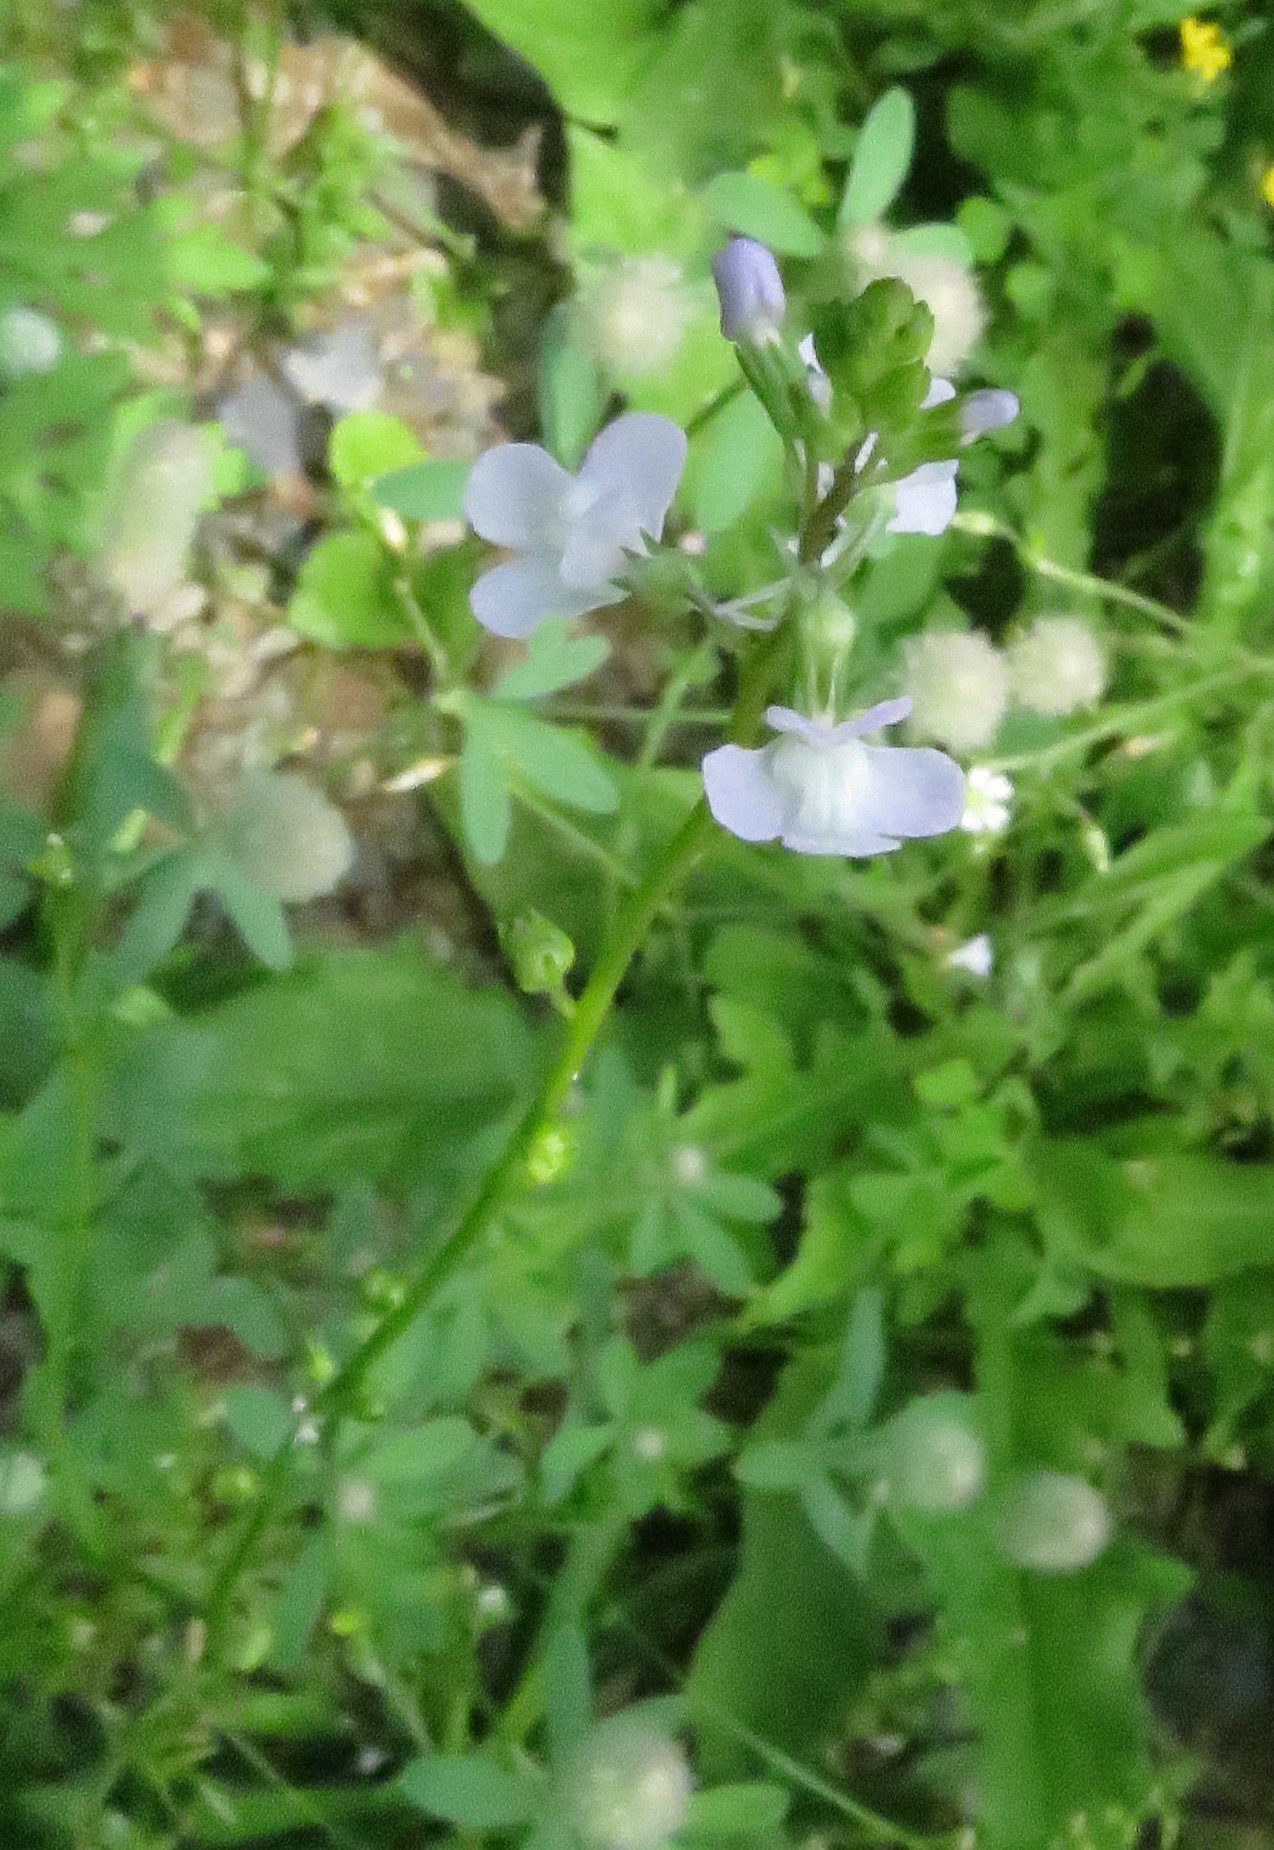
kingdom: Plantae
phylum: Tracheophyta
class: Magnoliopsida
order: Lamiales
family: Plantaginaceae
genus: Nuttallanthus
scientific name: Nuttallanthus canadensis
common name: Blue toadflax
